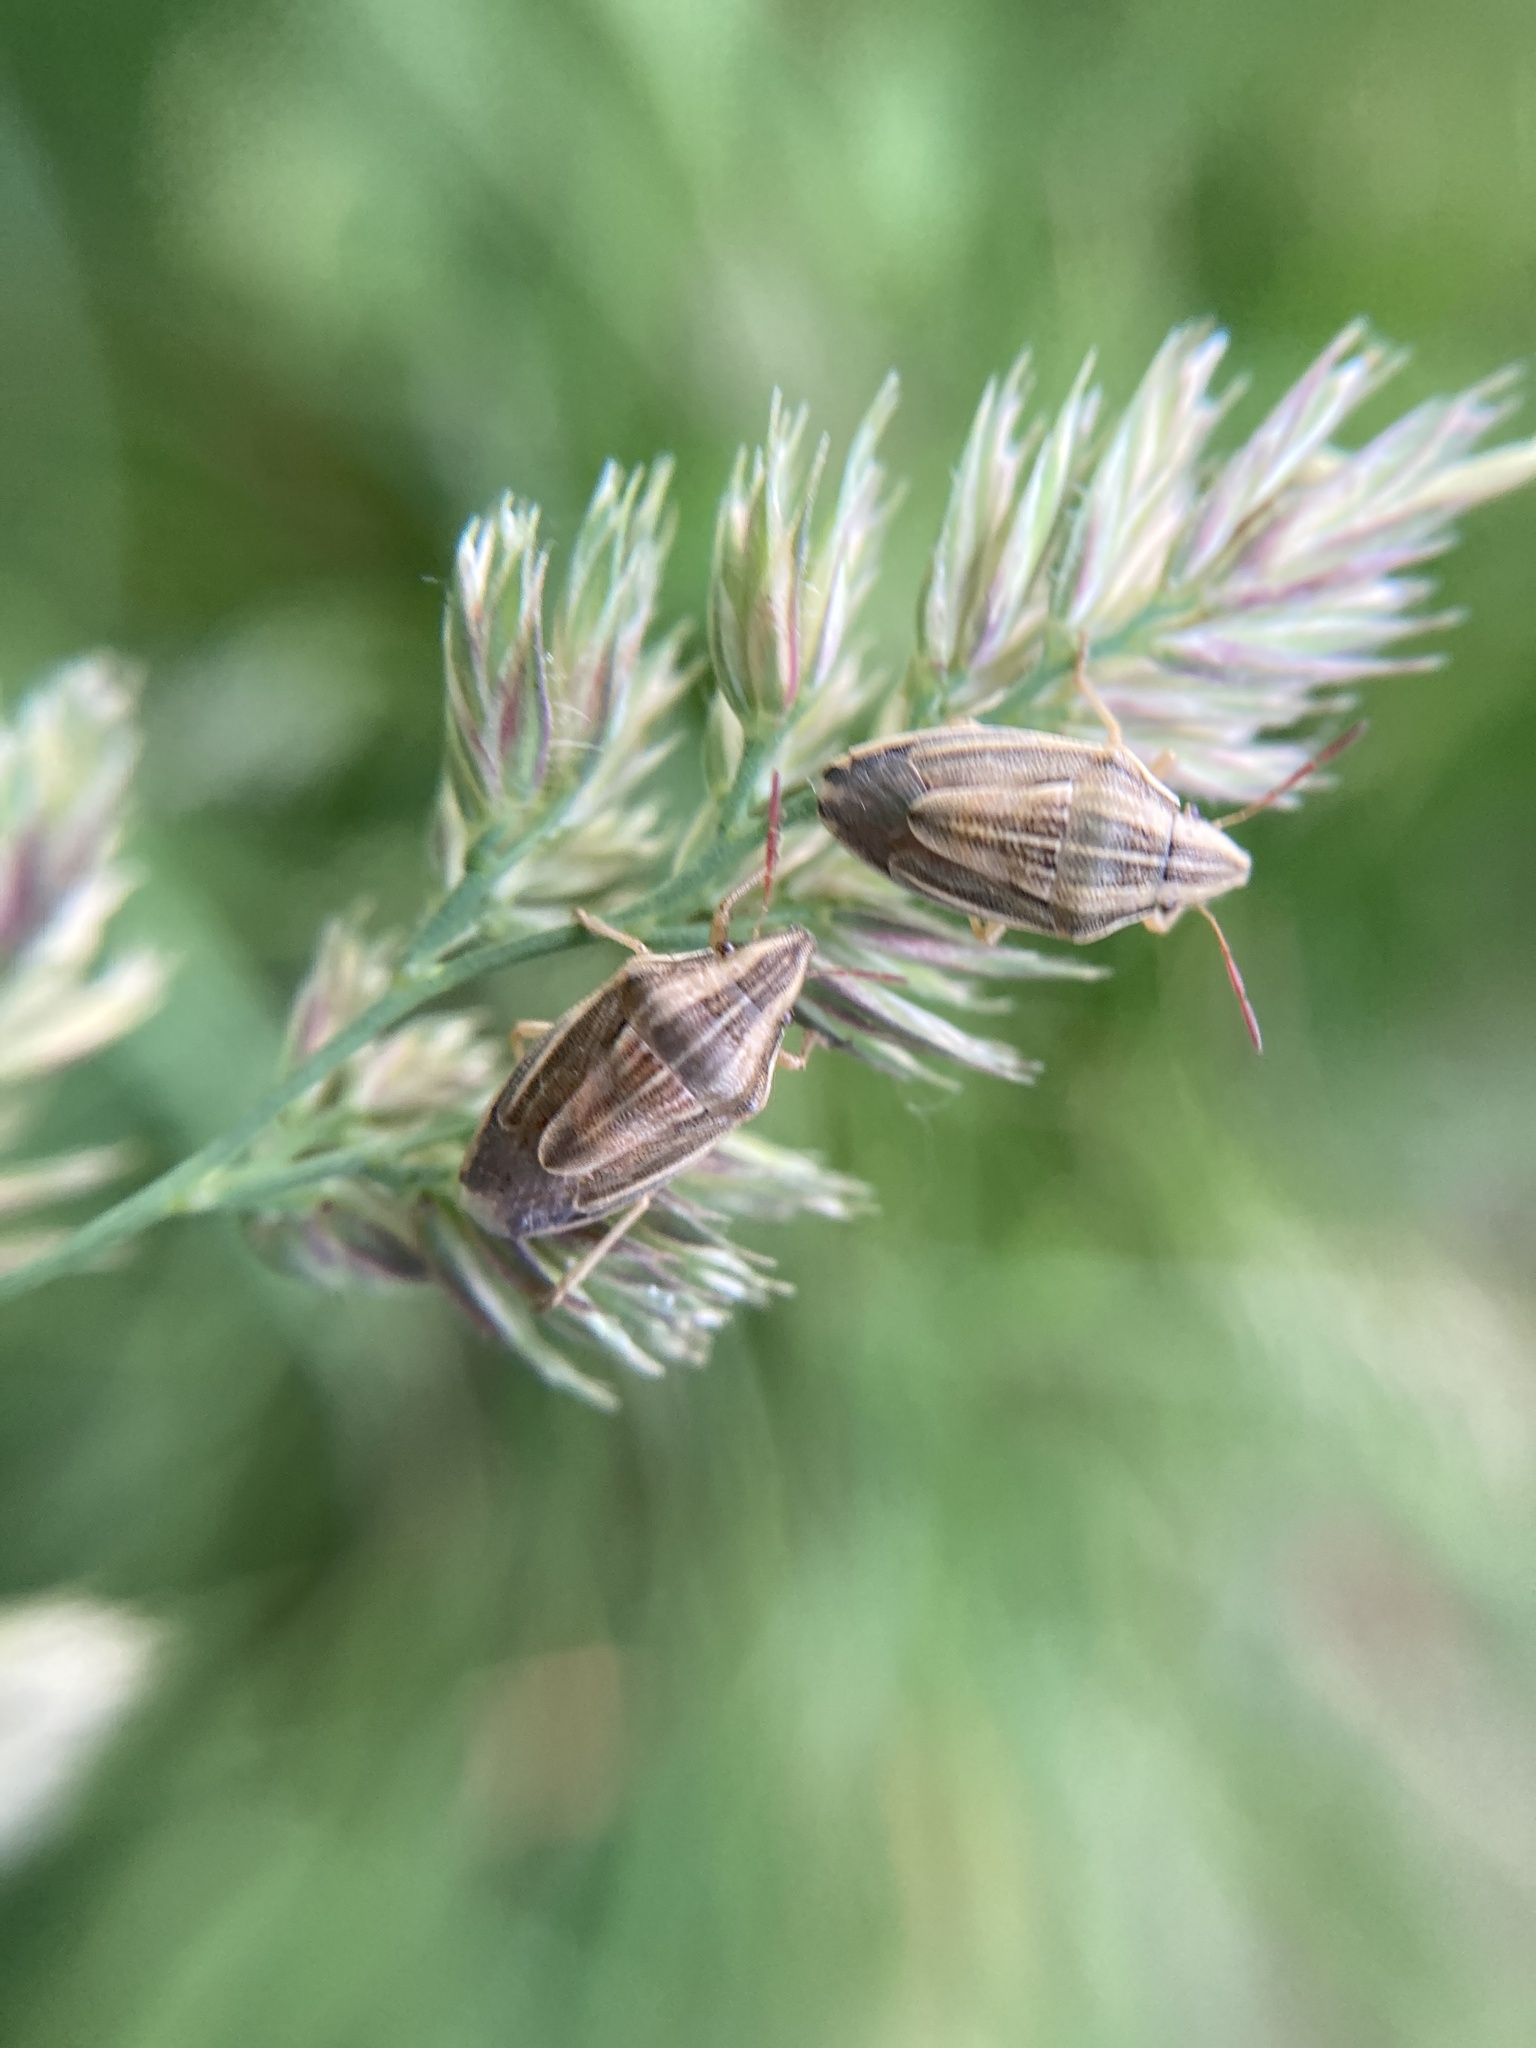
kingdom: Animalia
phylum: Arthropoda
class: Insecta
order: Hemiptera
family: Pentatomidae
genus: Aelia
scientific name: Aelia acuminata
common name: Bishop's mitre
